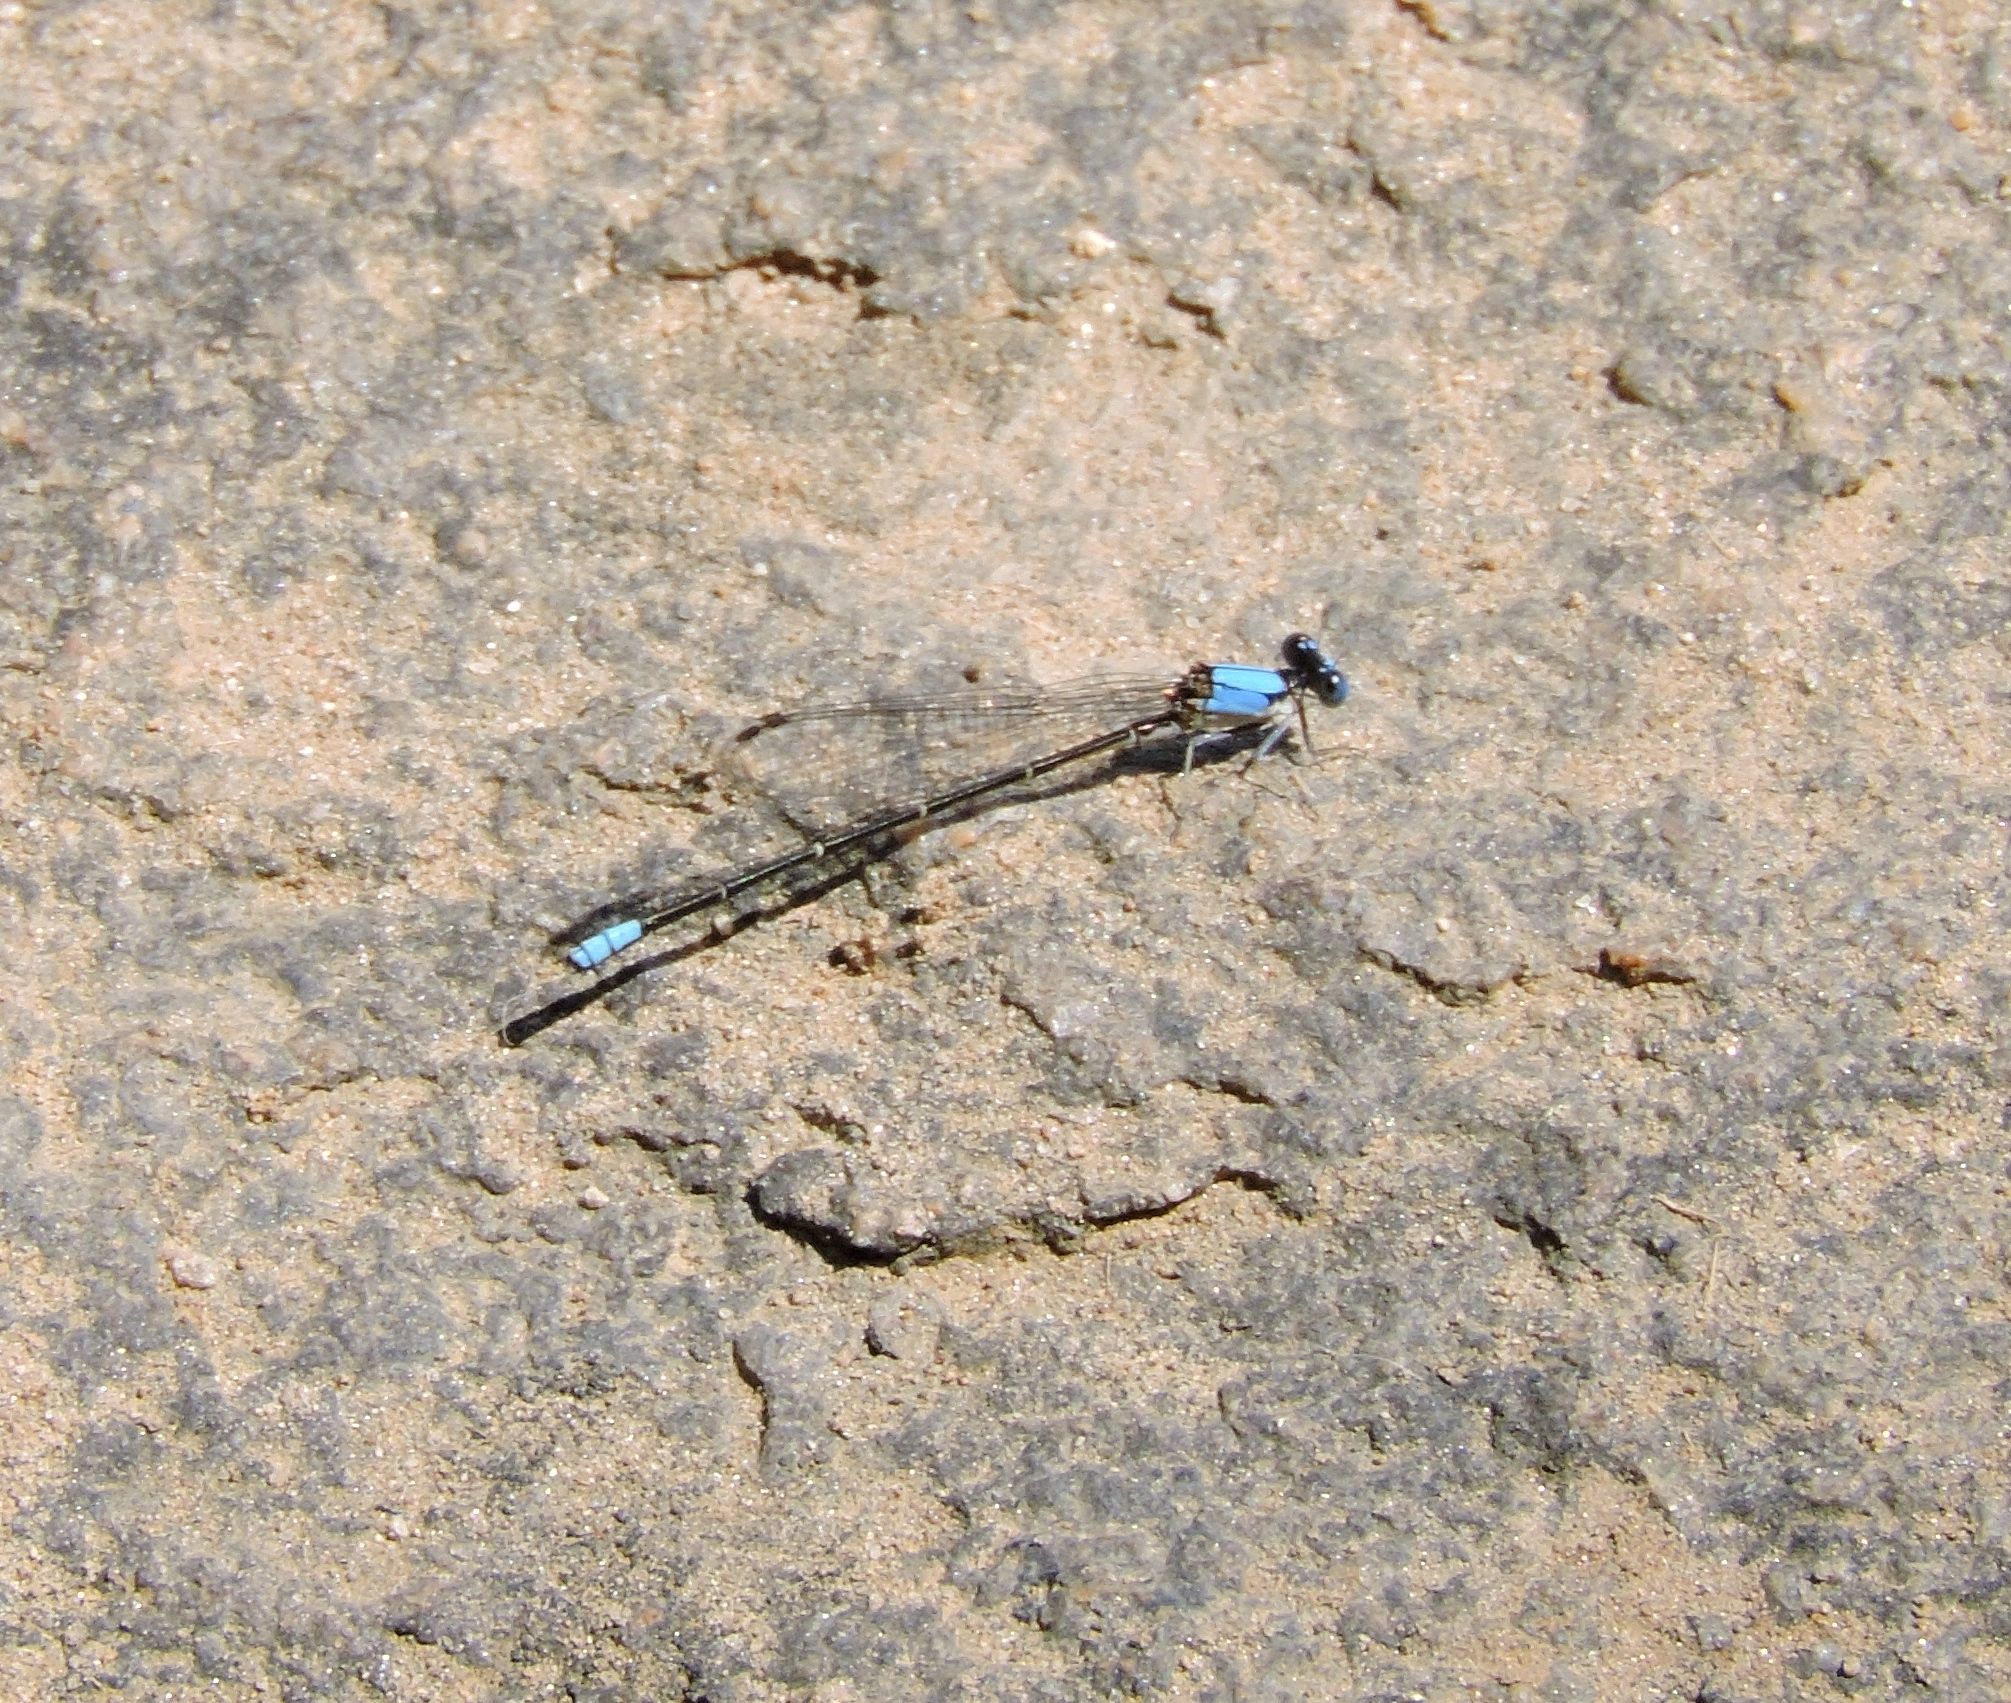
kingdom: Animalia
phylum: Arthropoda
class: Insecta
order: Odonata
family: Coenagrionidae
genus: Argia
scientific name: Argia apicalis
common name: Blue-fronted dancer
